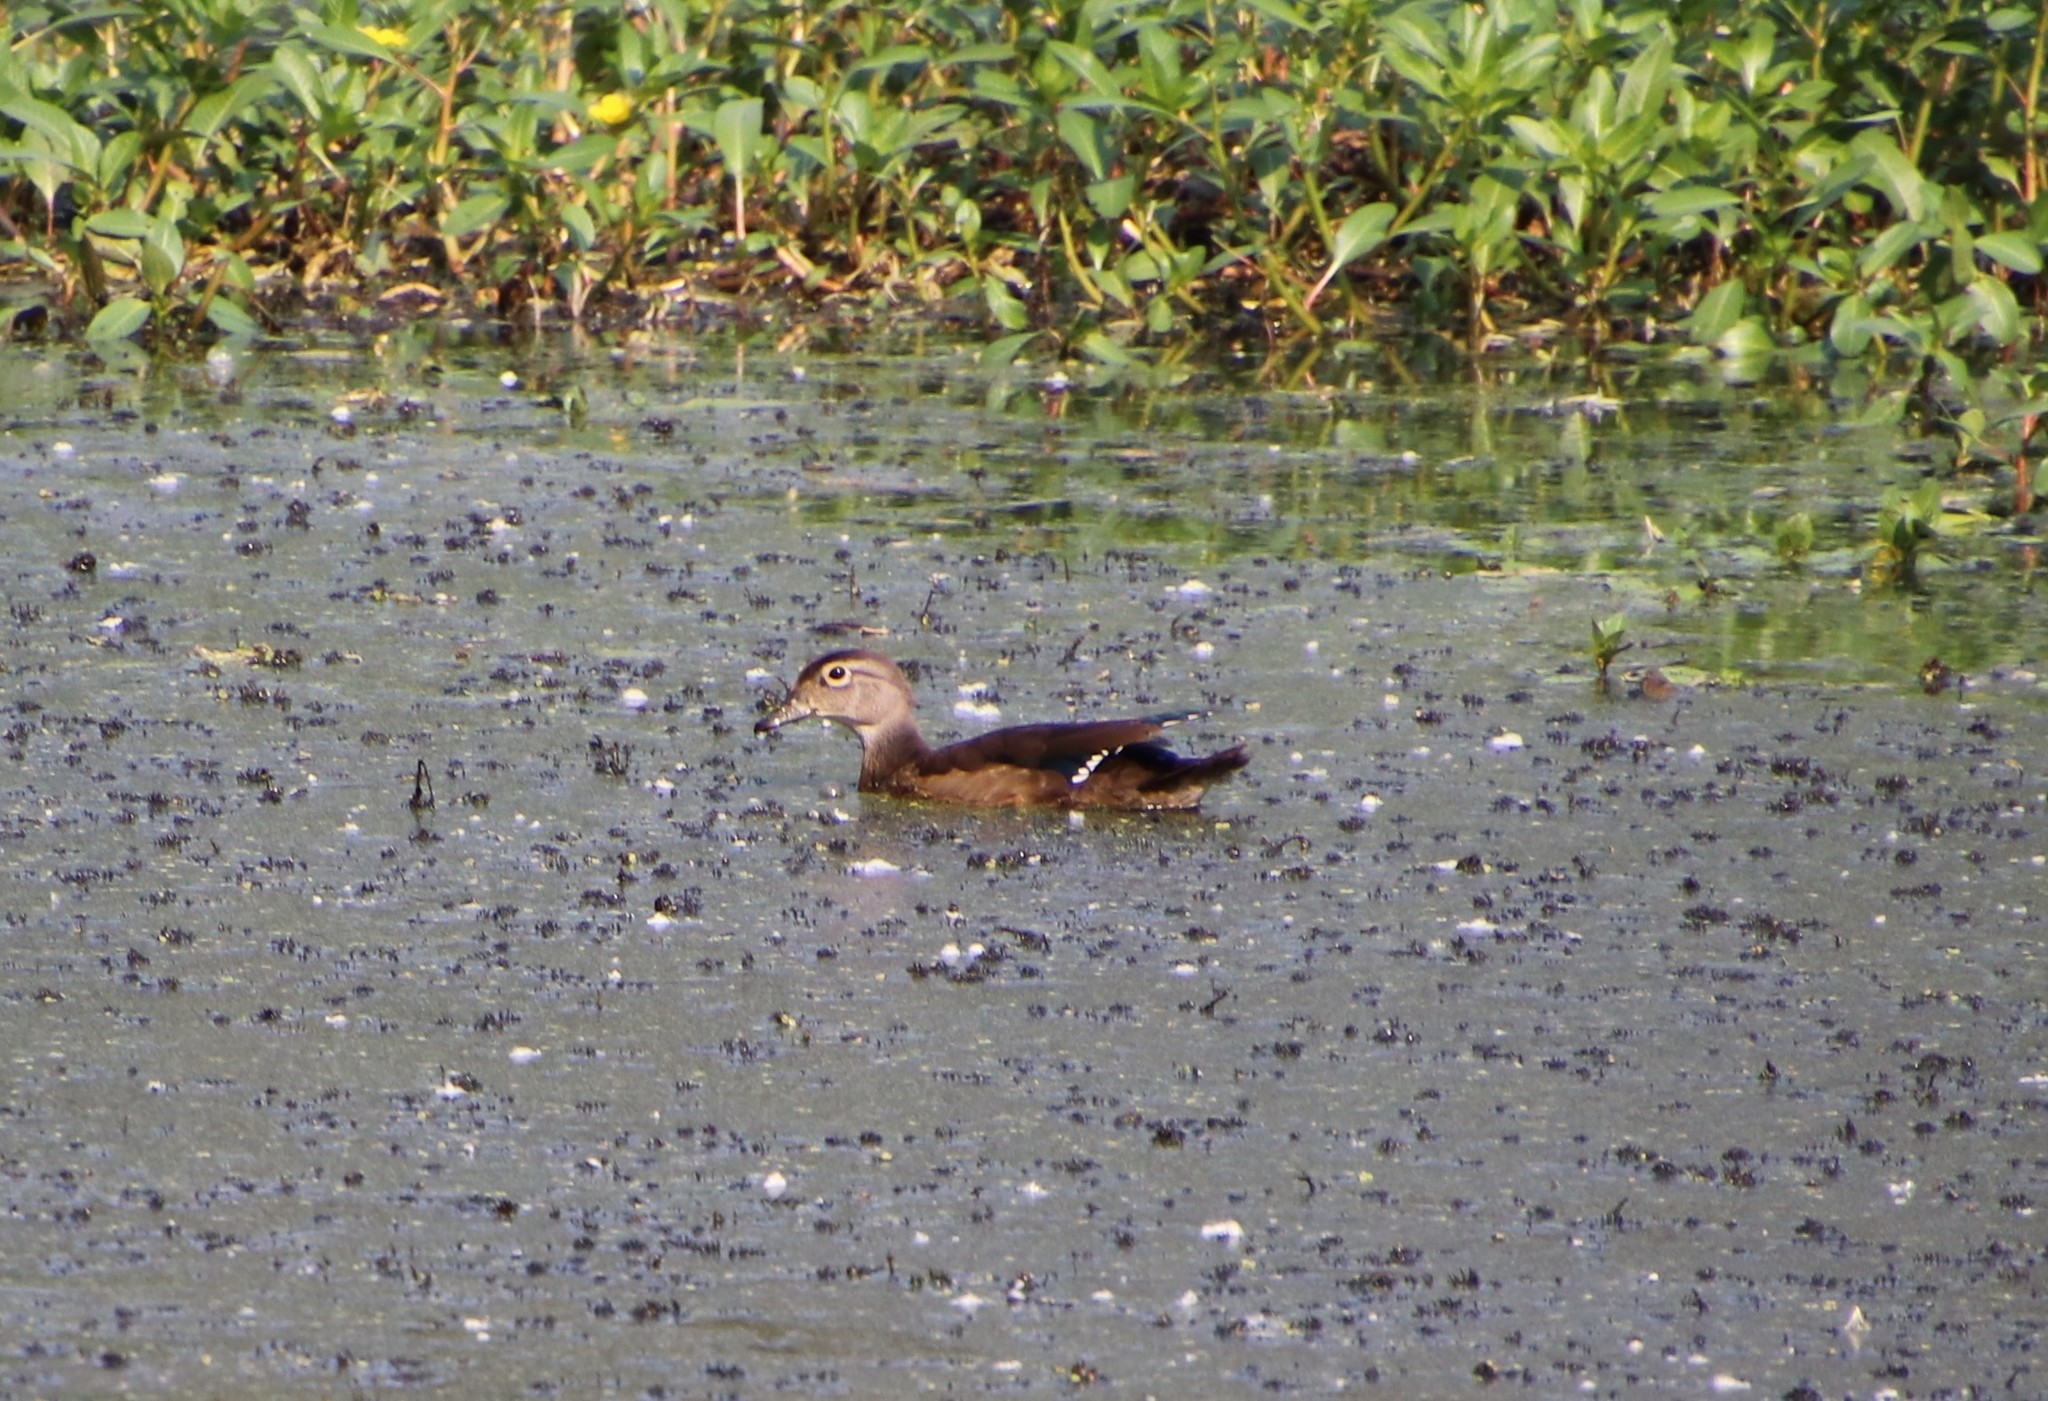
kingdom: Animalia
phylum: Chordata
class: Aves
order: Anseriformes
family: Anatidae
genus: Aix
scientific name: Aix sponsa
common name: Wood duck
